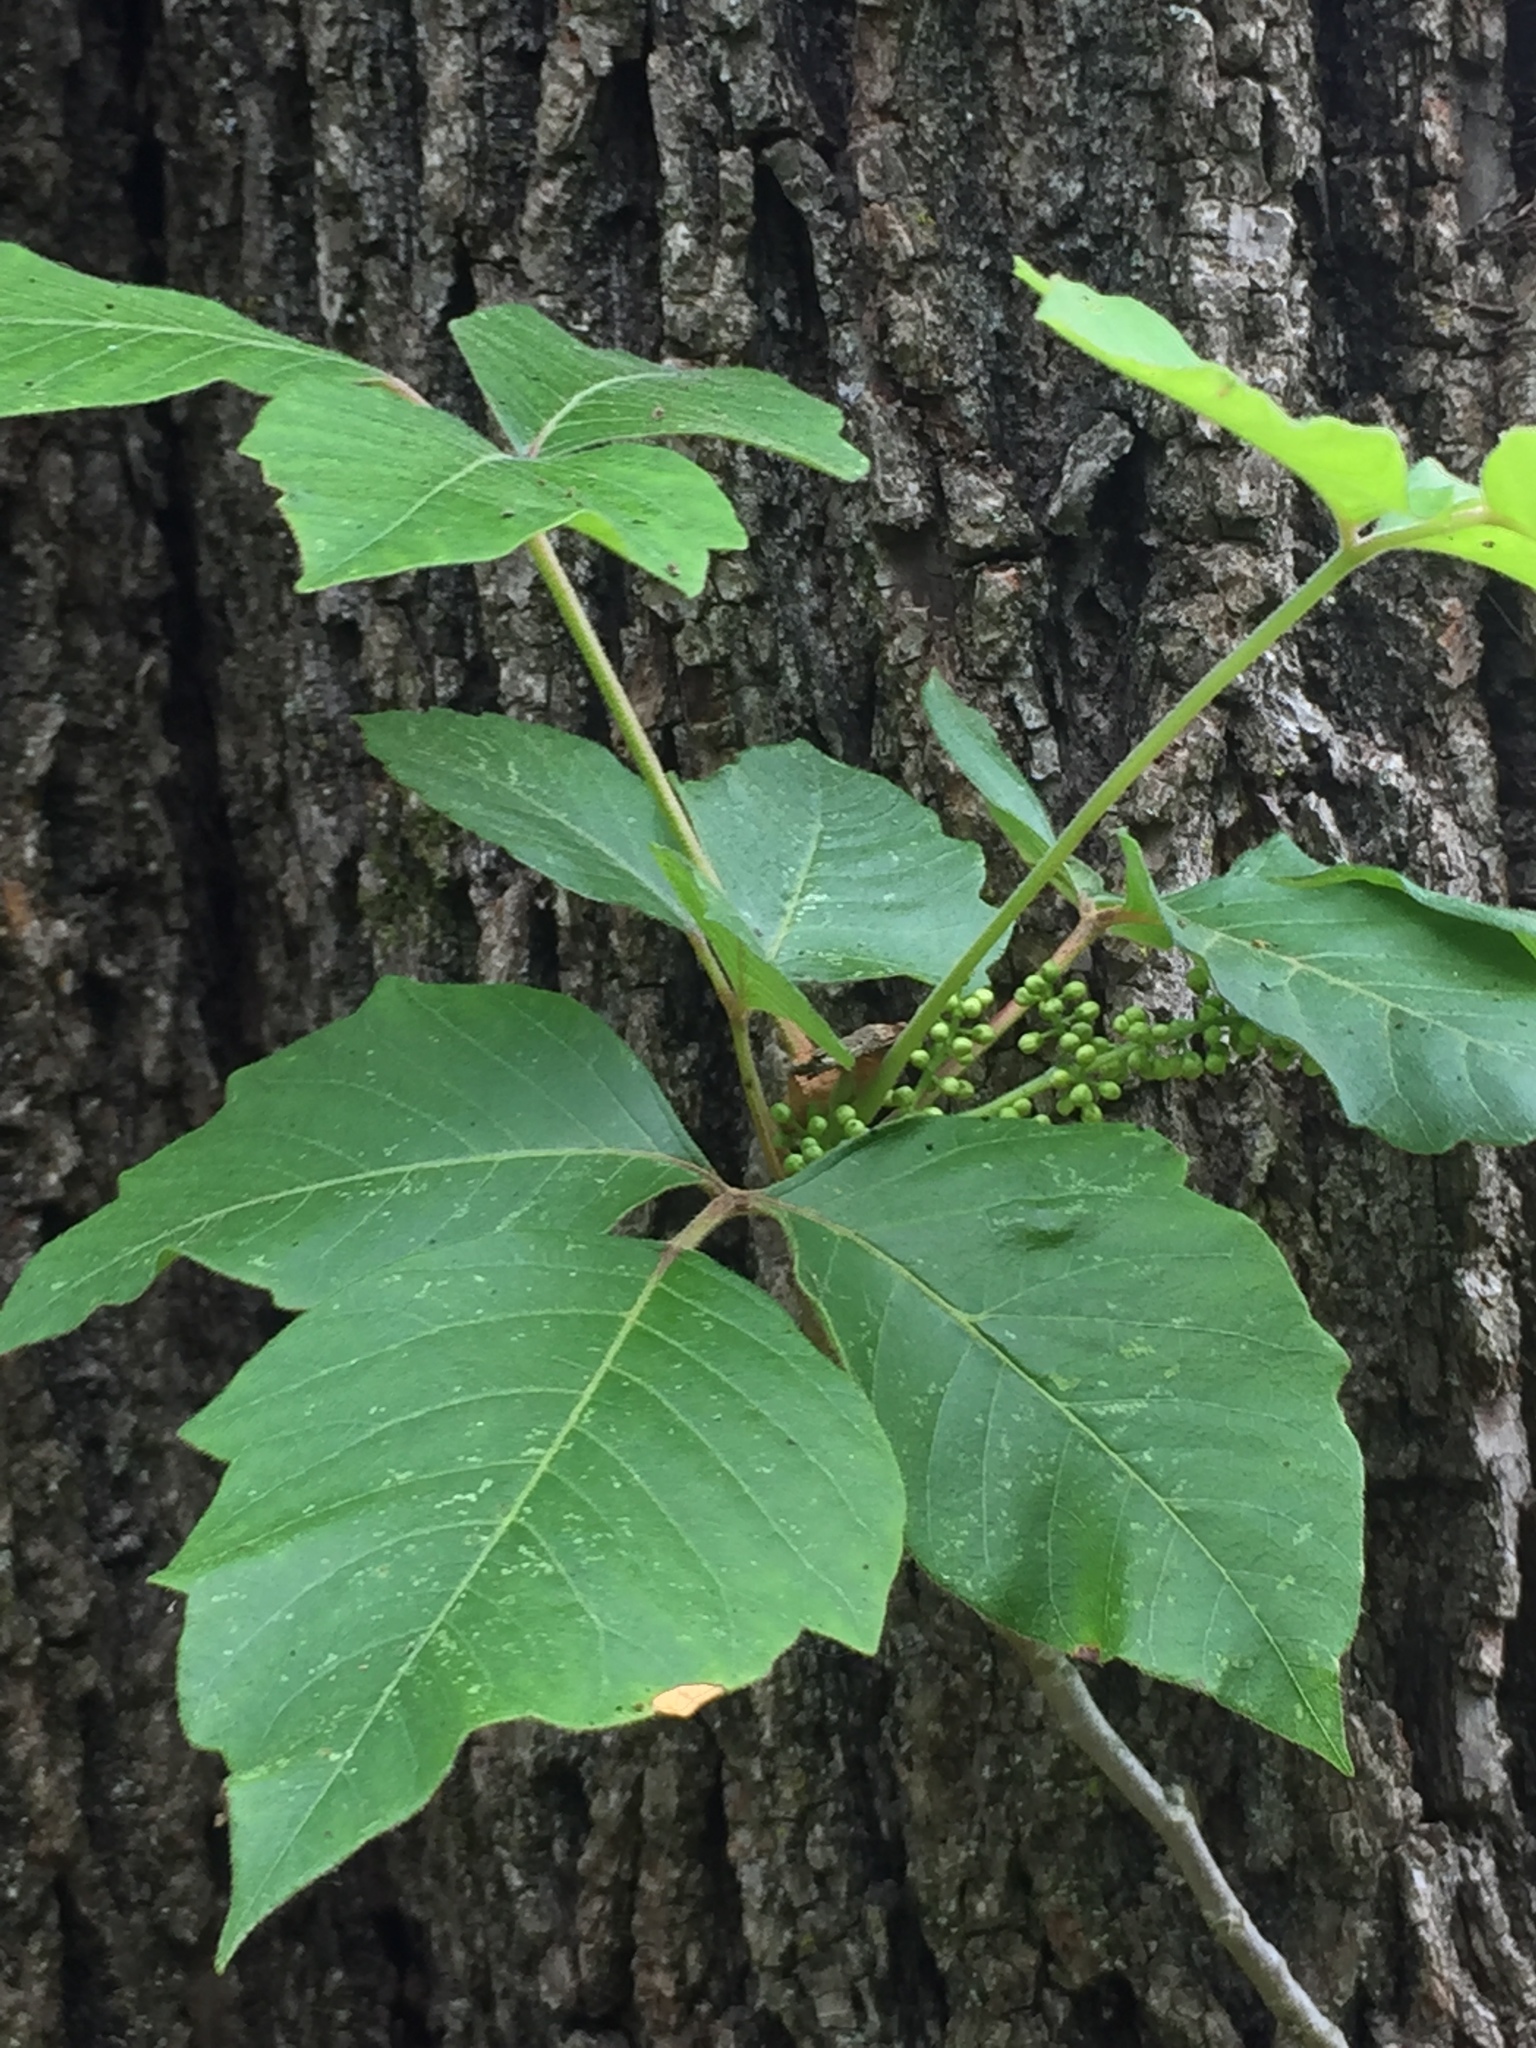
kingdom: Plantae
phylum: Tracheophyta
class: Magnoliopsida
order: Sapindales
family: Anacardiaceae
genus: Toxicodendron
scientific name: Toxicodendron radicans
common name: Poison ivy
